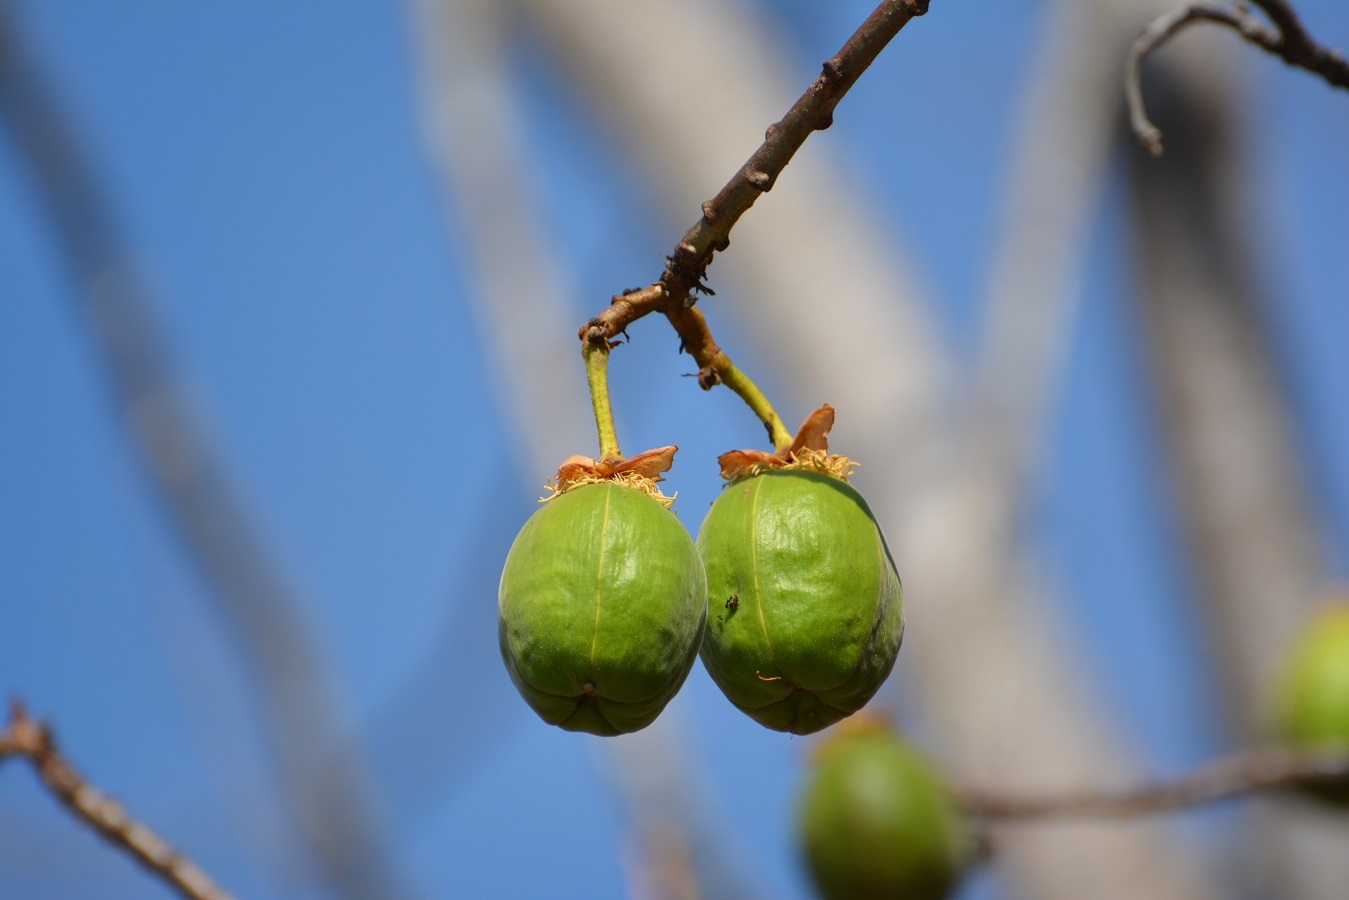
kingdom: Plantae
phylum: Tracheophyta
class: Magnoliopsida
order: Malvales
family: Cochlospermaceae
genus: Cochlospermum
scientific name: Cochlospermum vitifolium
